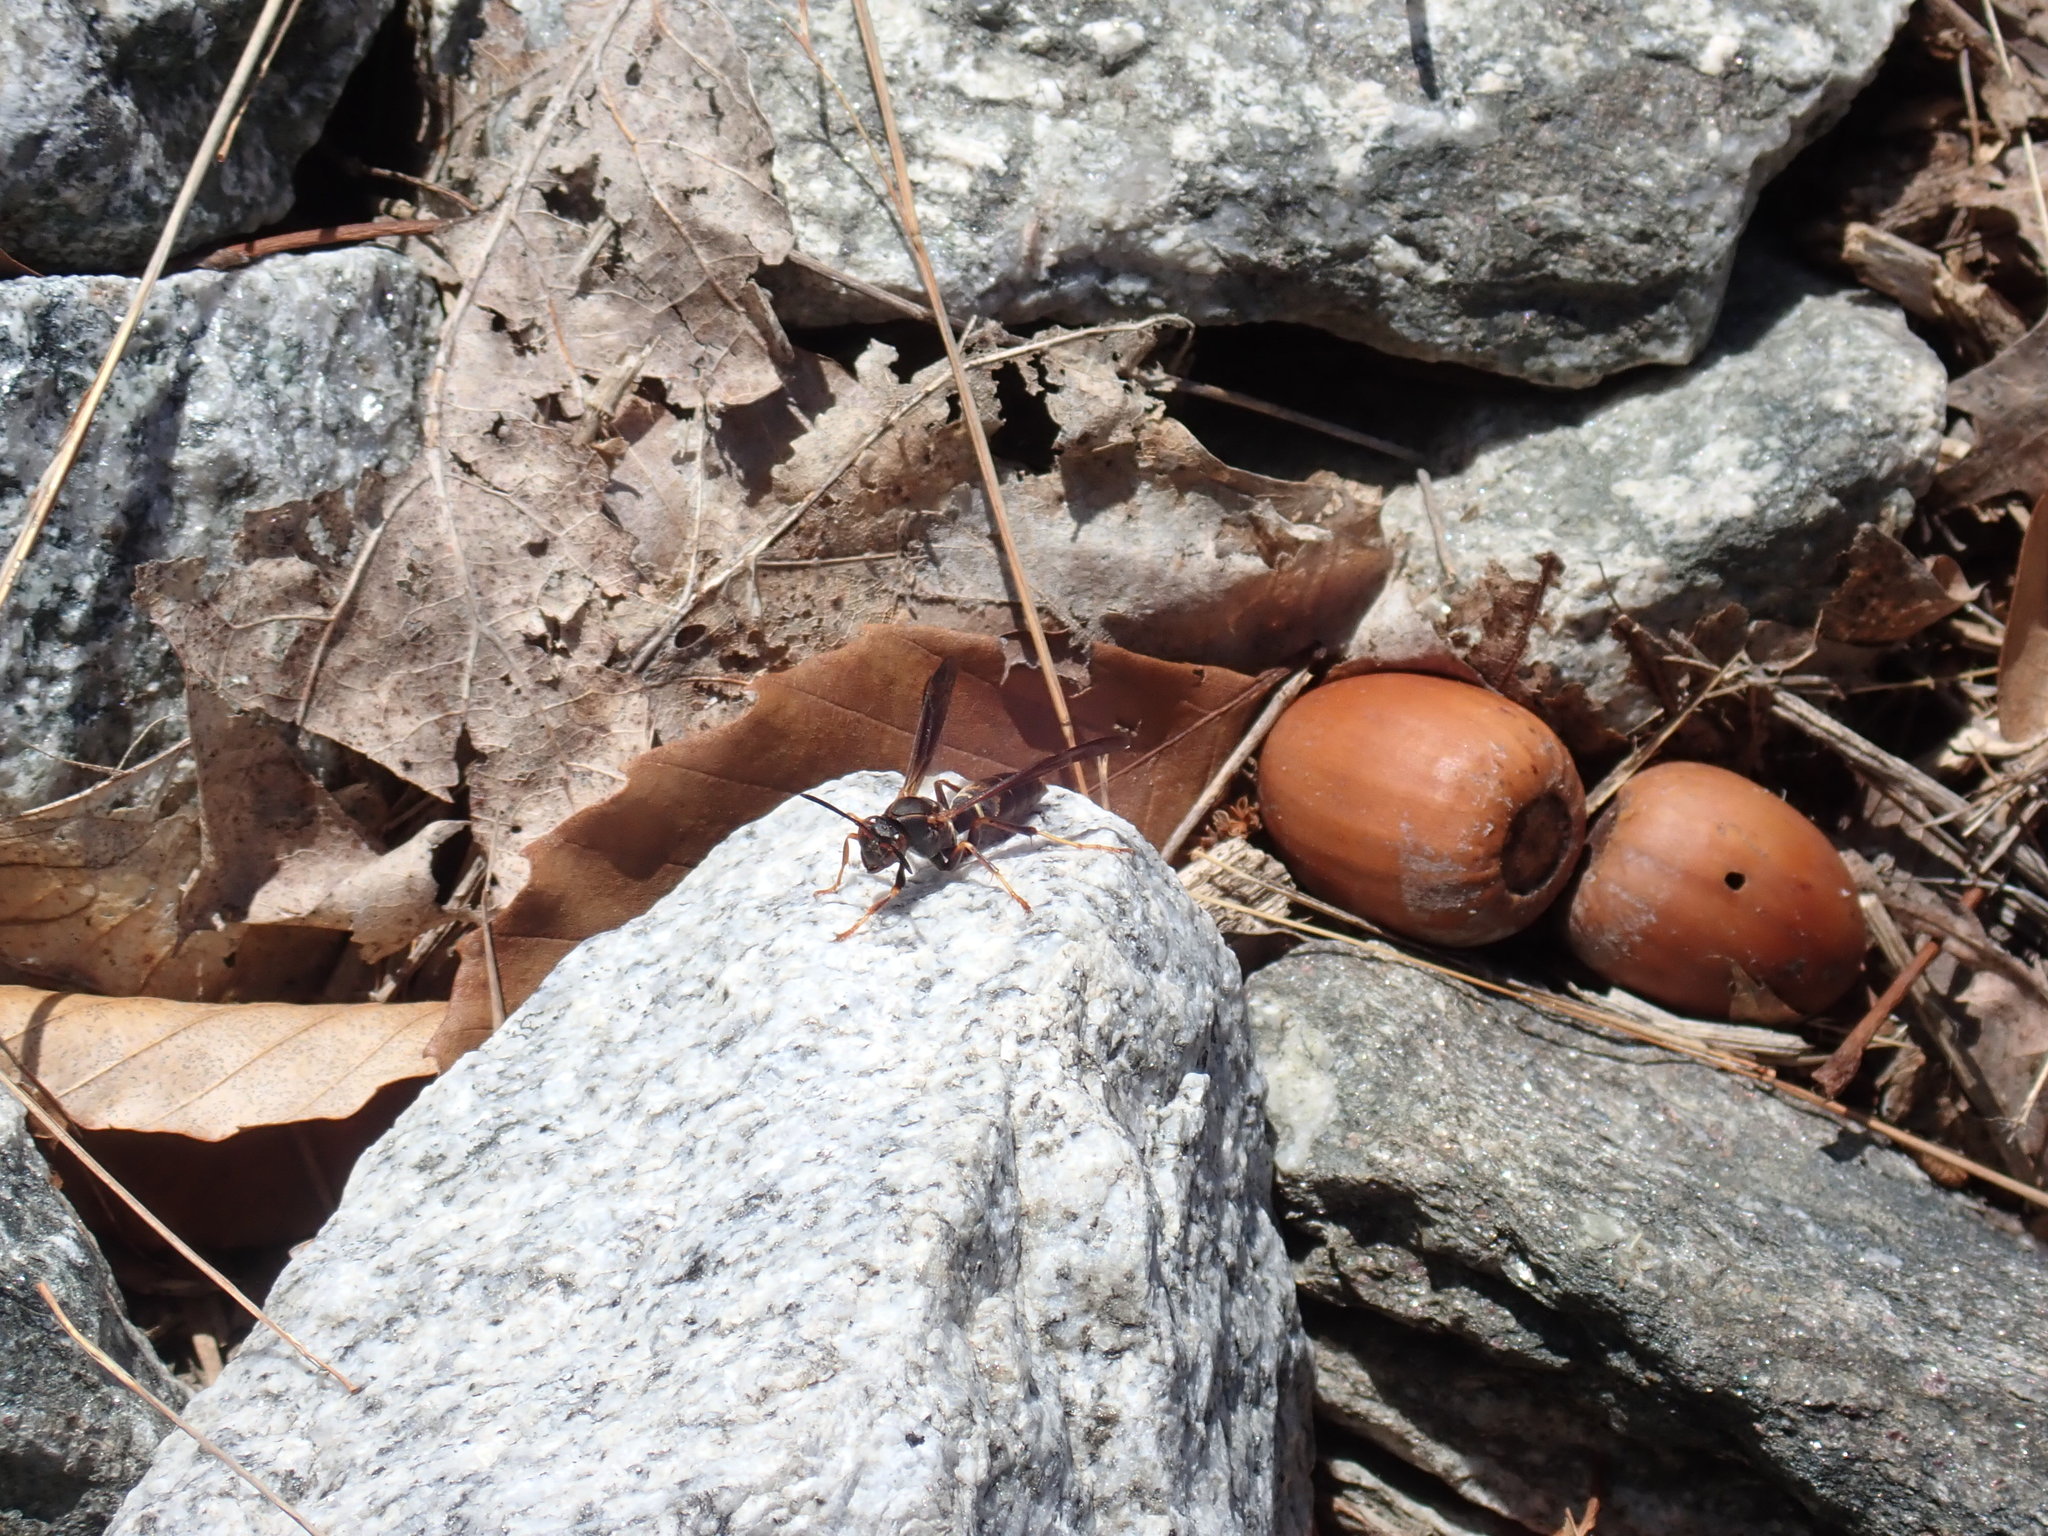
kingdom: Animalia
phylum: Arthropoda
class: Insecta
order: Hymenoptera
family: Eumenidae
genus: Polistes
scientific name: Polistes fuscatus
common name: Dark paper wasp
